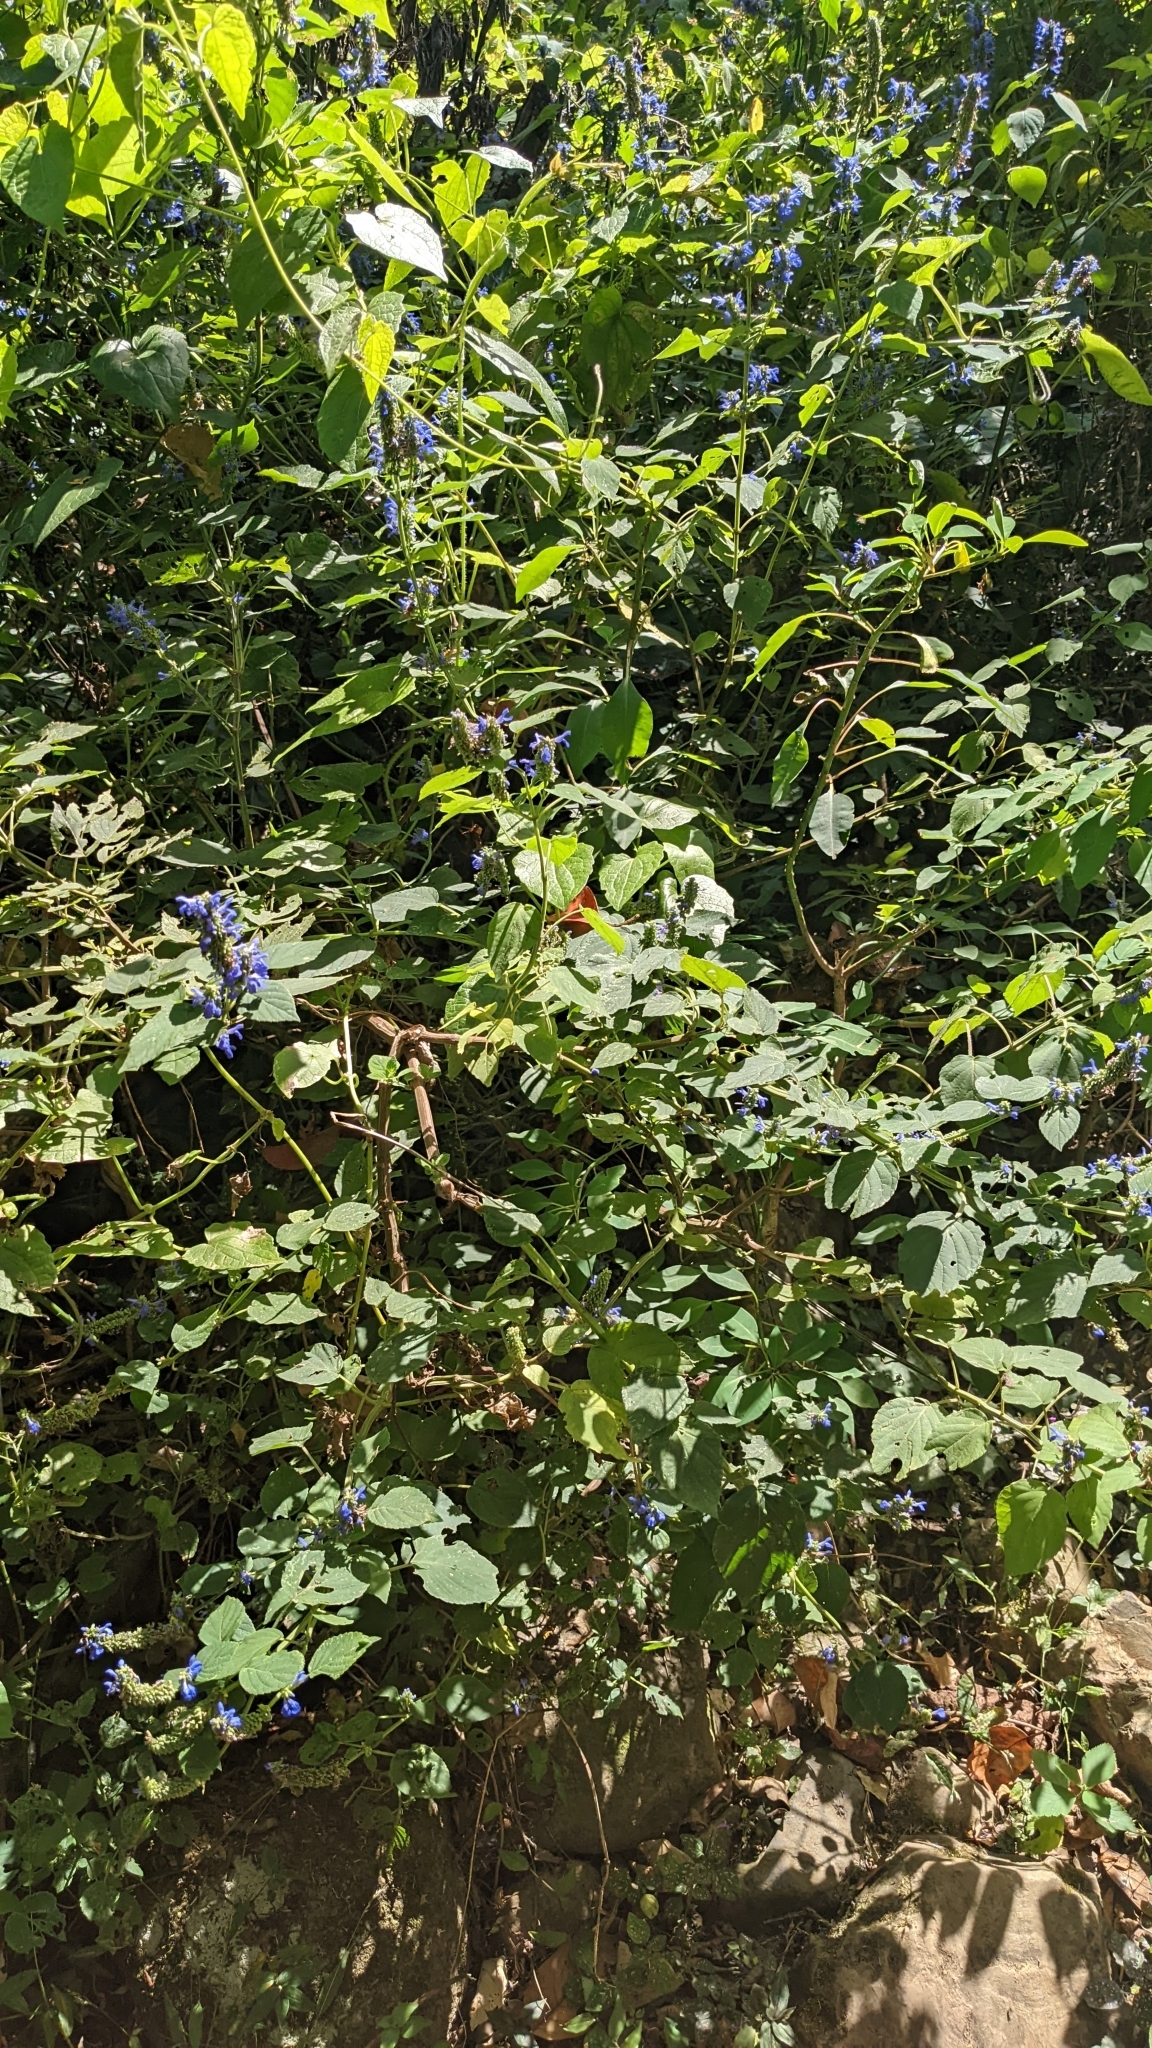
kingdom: Plantae
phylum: Tracheophyta
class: Magnoliopsida
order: Lamiales
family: Lamiaceae
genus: Salvia
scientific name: Salvia polystachia
